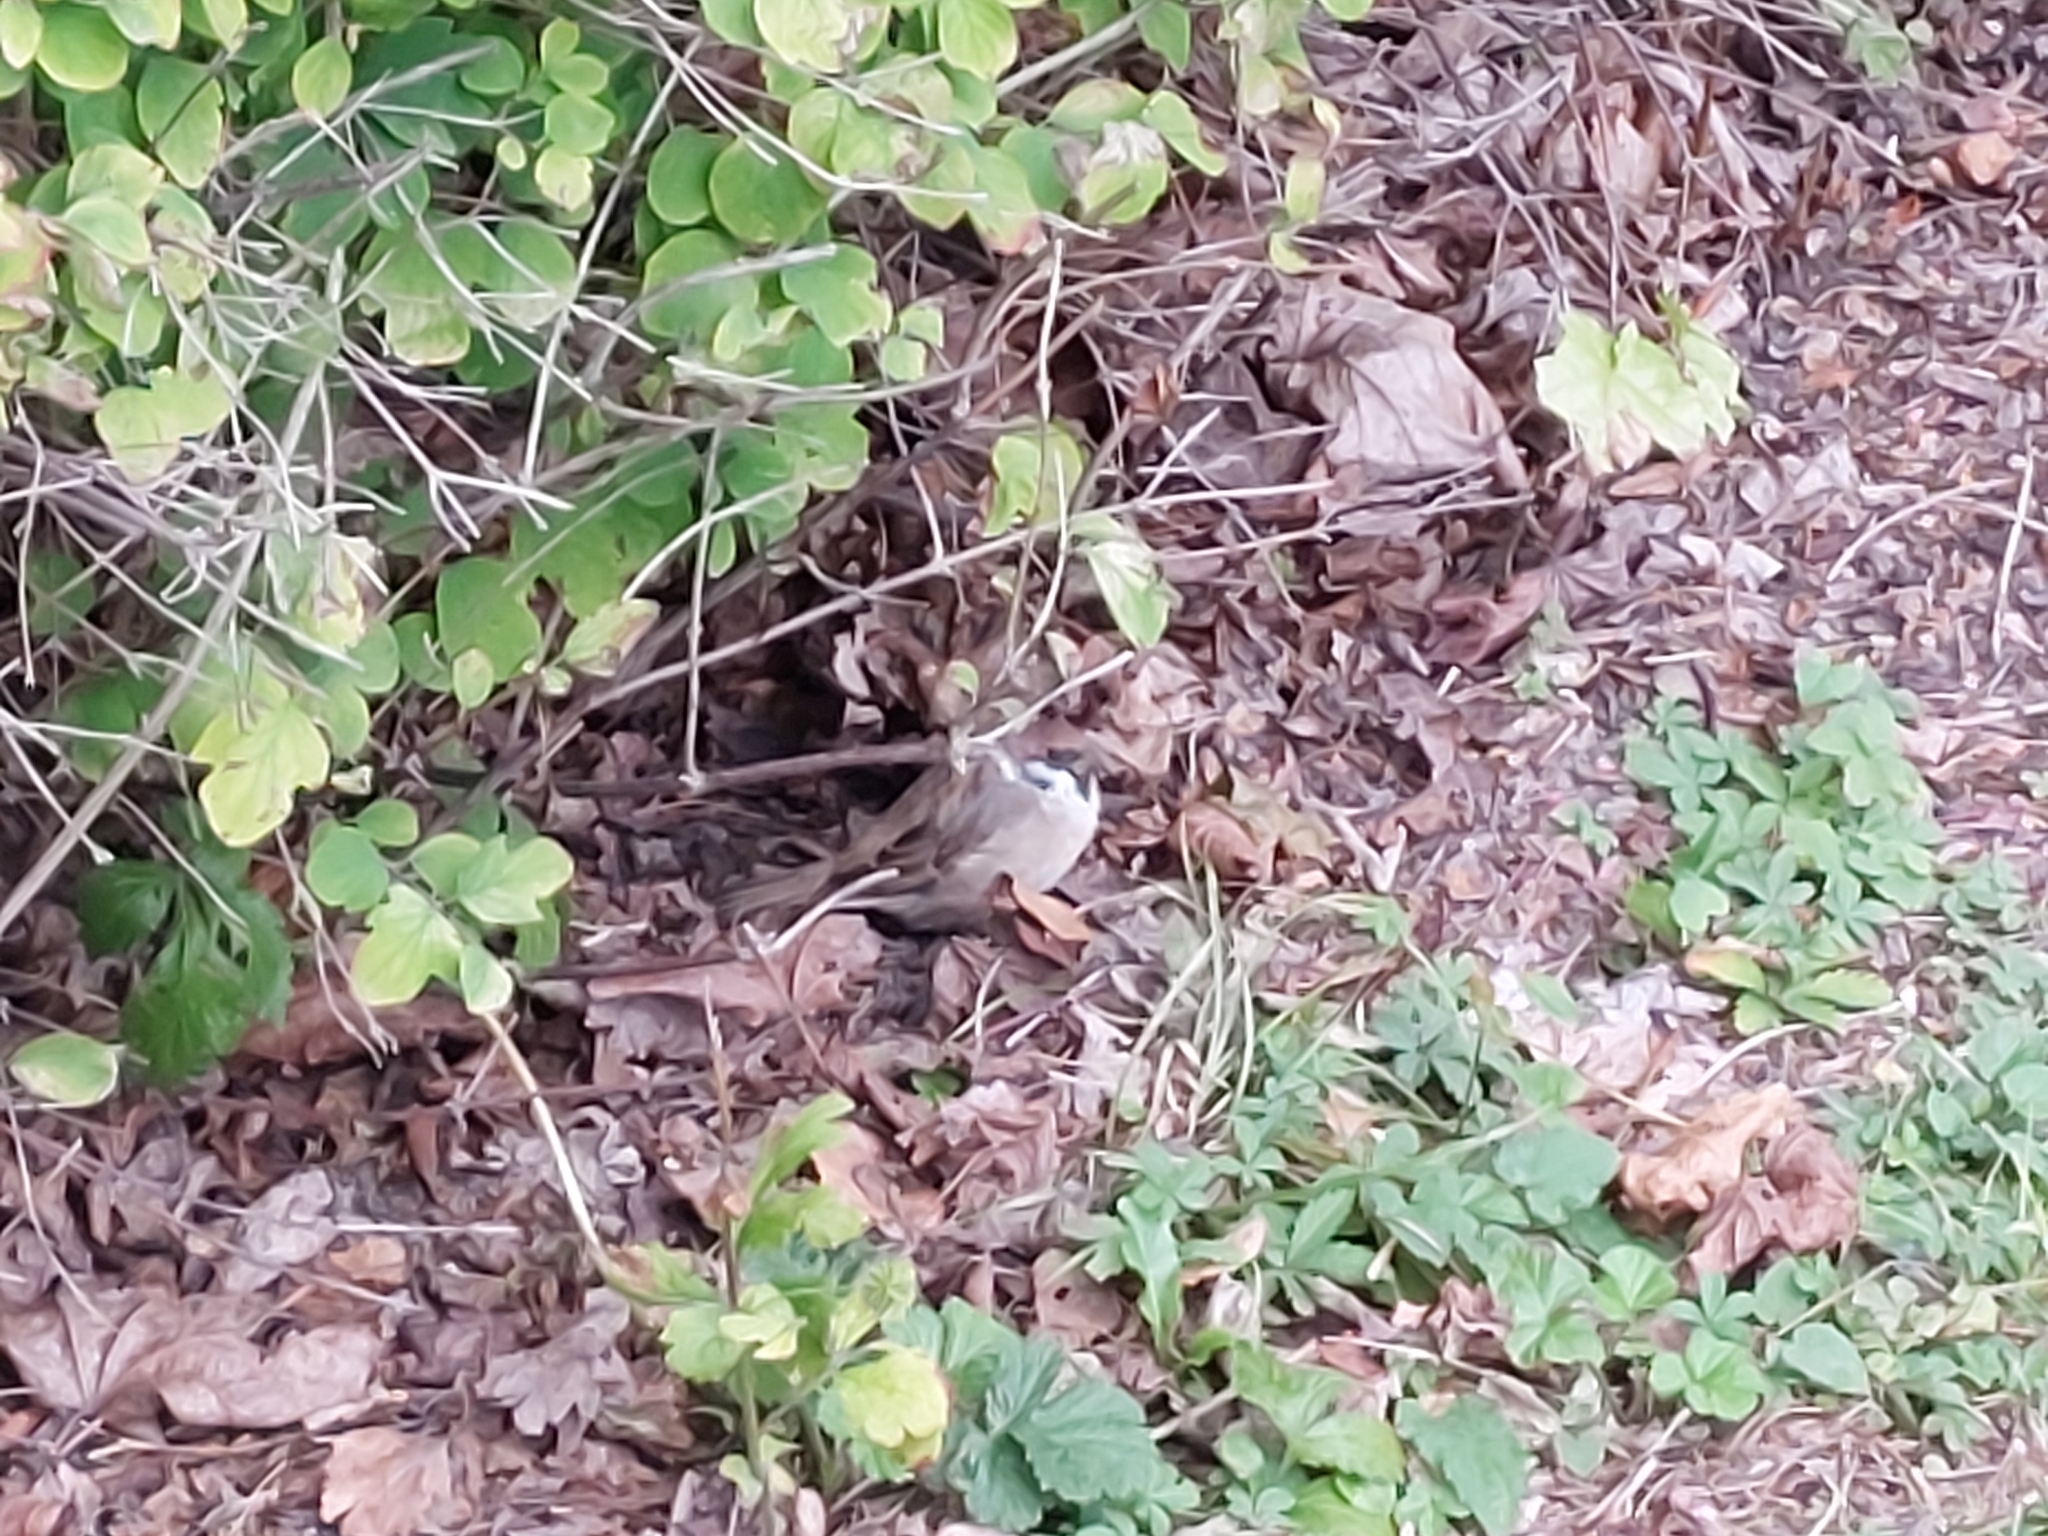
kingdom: Animalia
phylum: Chordata
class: Aves
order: Passeriformes
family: Passeridae
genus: Passer
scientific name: Passer montanus
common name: Eurasian tree sparrow
